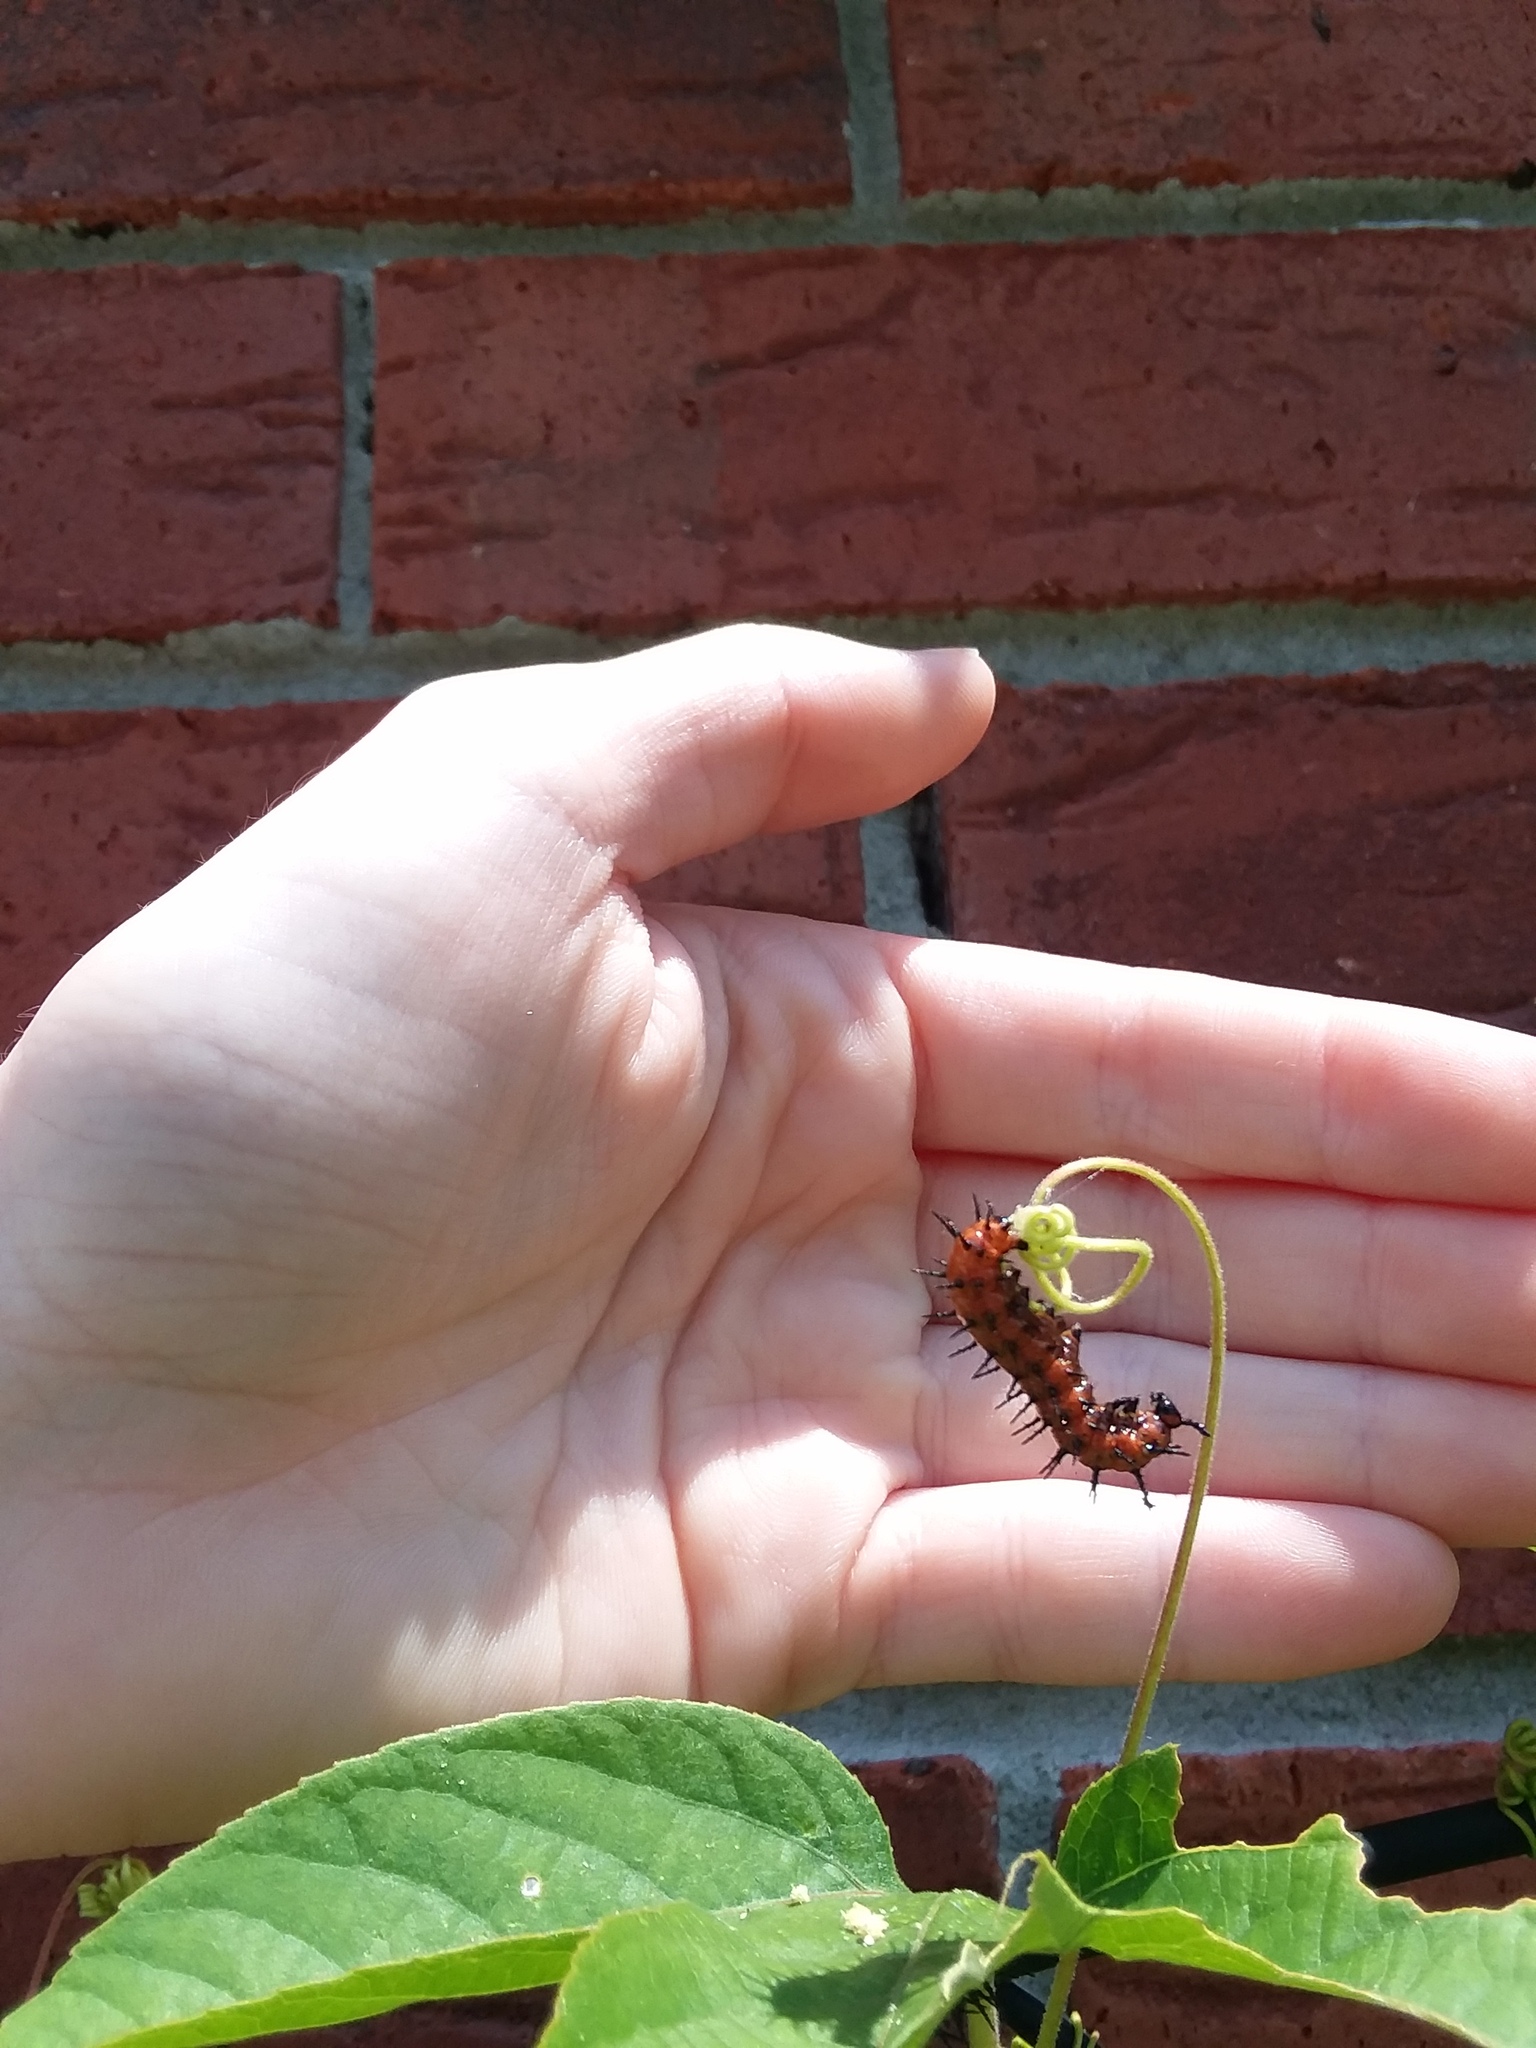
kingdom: Animalia
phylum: Arthropoda
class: Insecta
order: Lepidoptera
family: Nymphalidae
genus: Dione
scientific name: Dione vanillae
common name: Gulf fritillary
